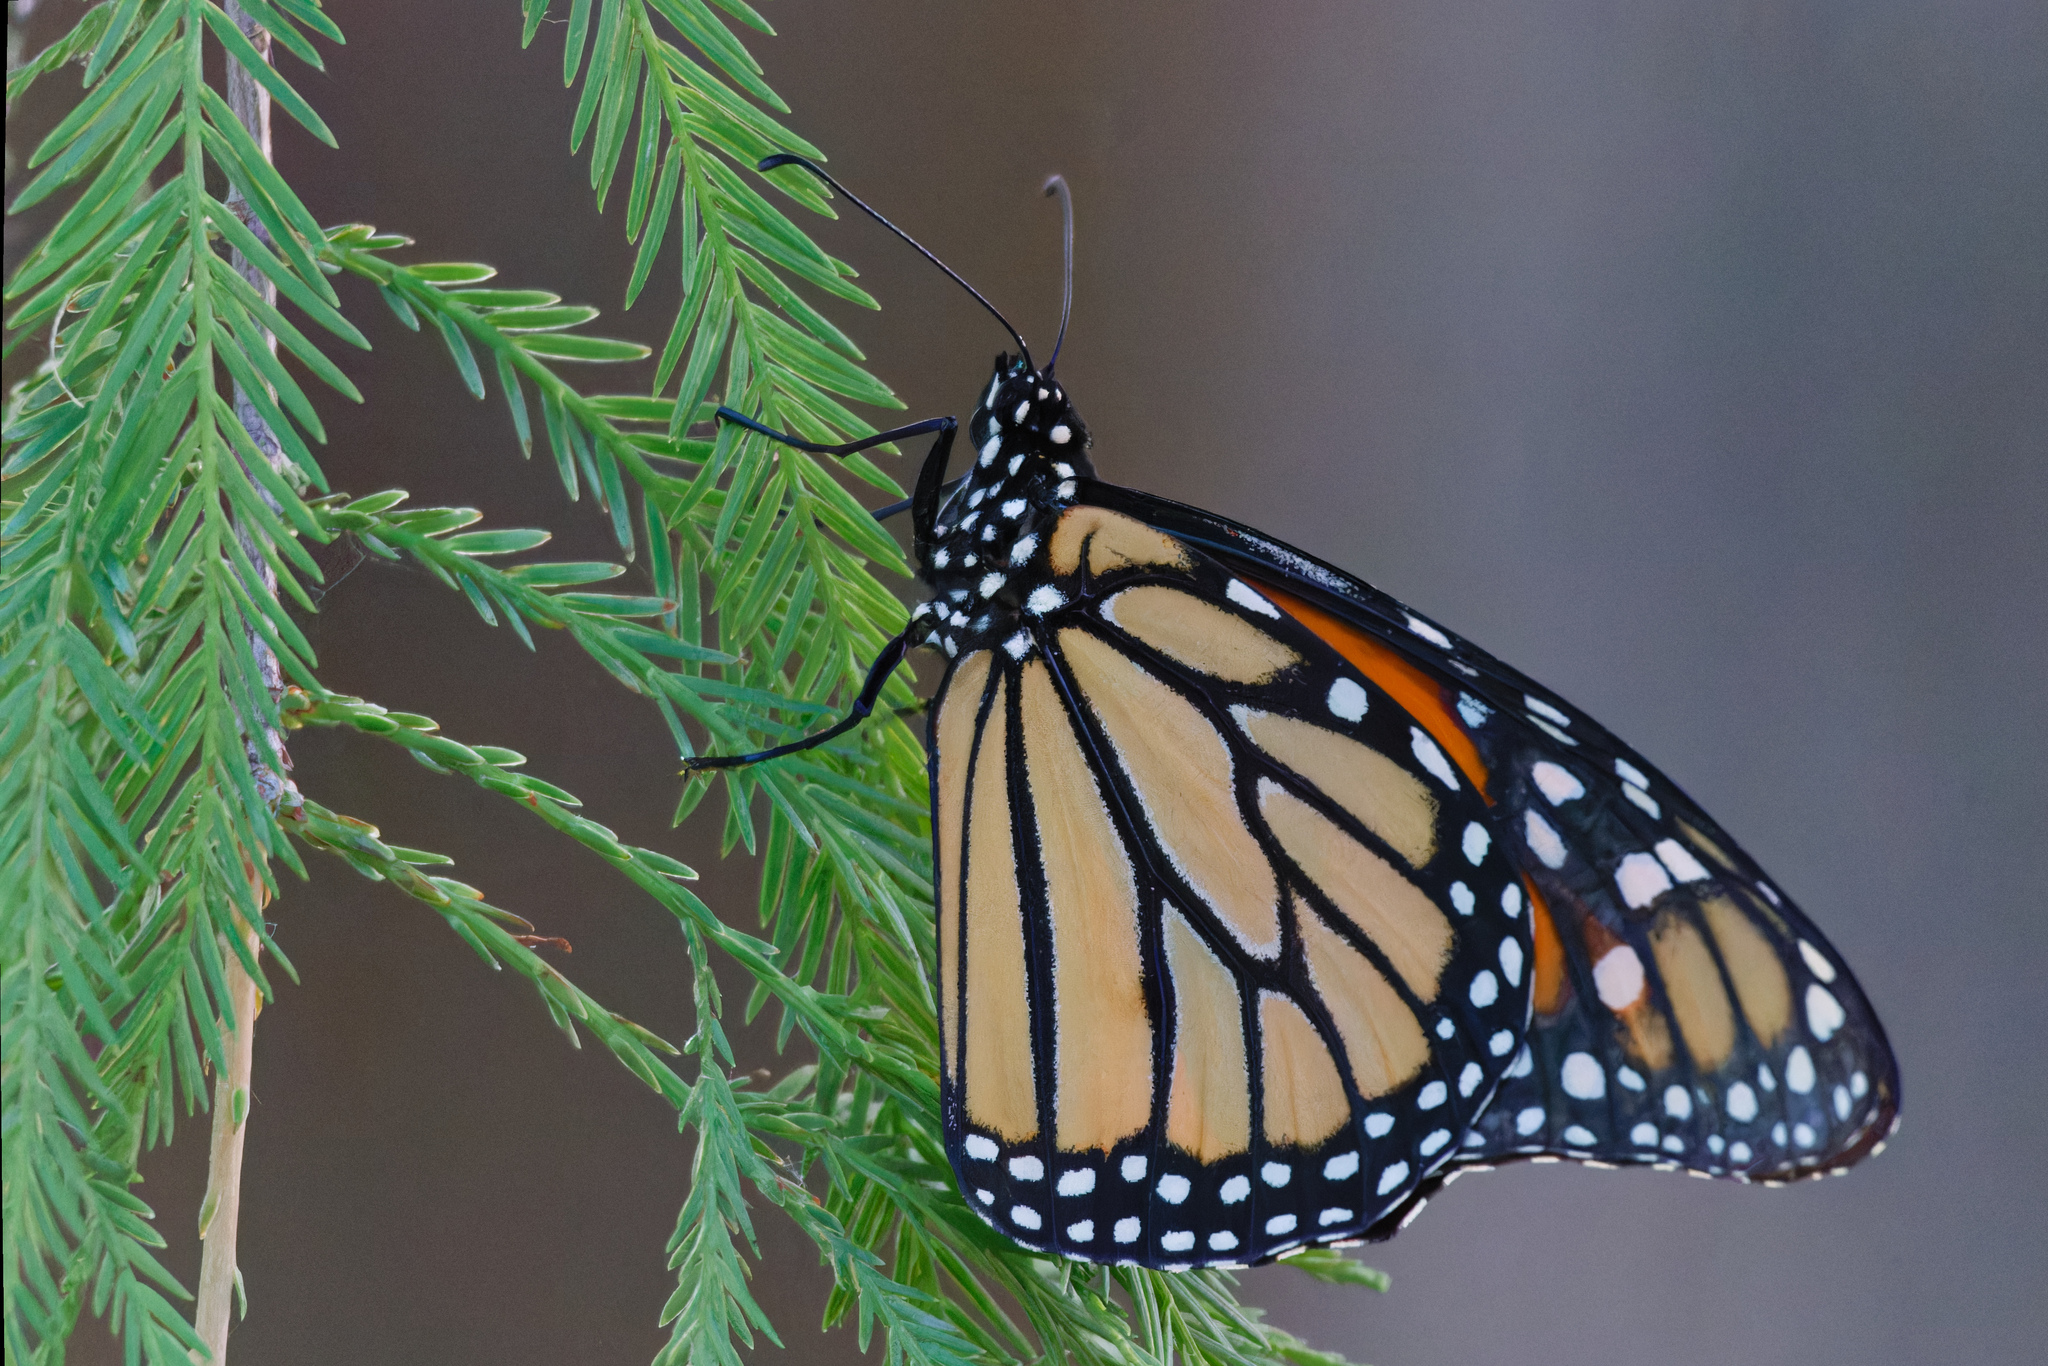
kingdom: Animalia
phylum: Arthropoda
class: Insecta
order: Lepidoptera
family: Nymphalidae
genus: Danaus
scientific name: Danaus plexippus
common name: Monarch
